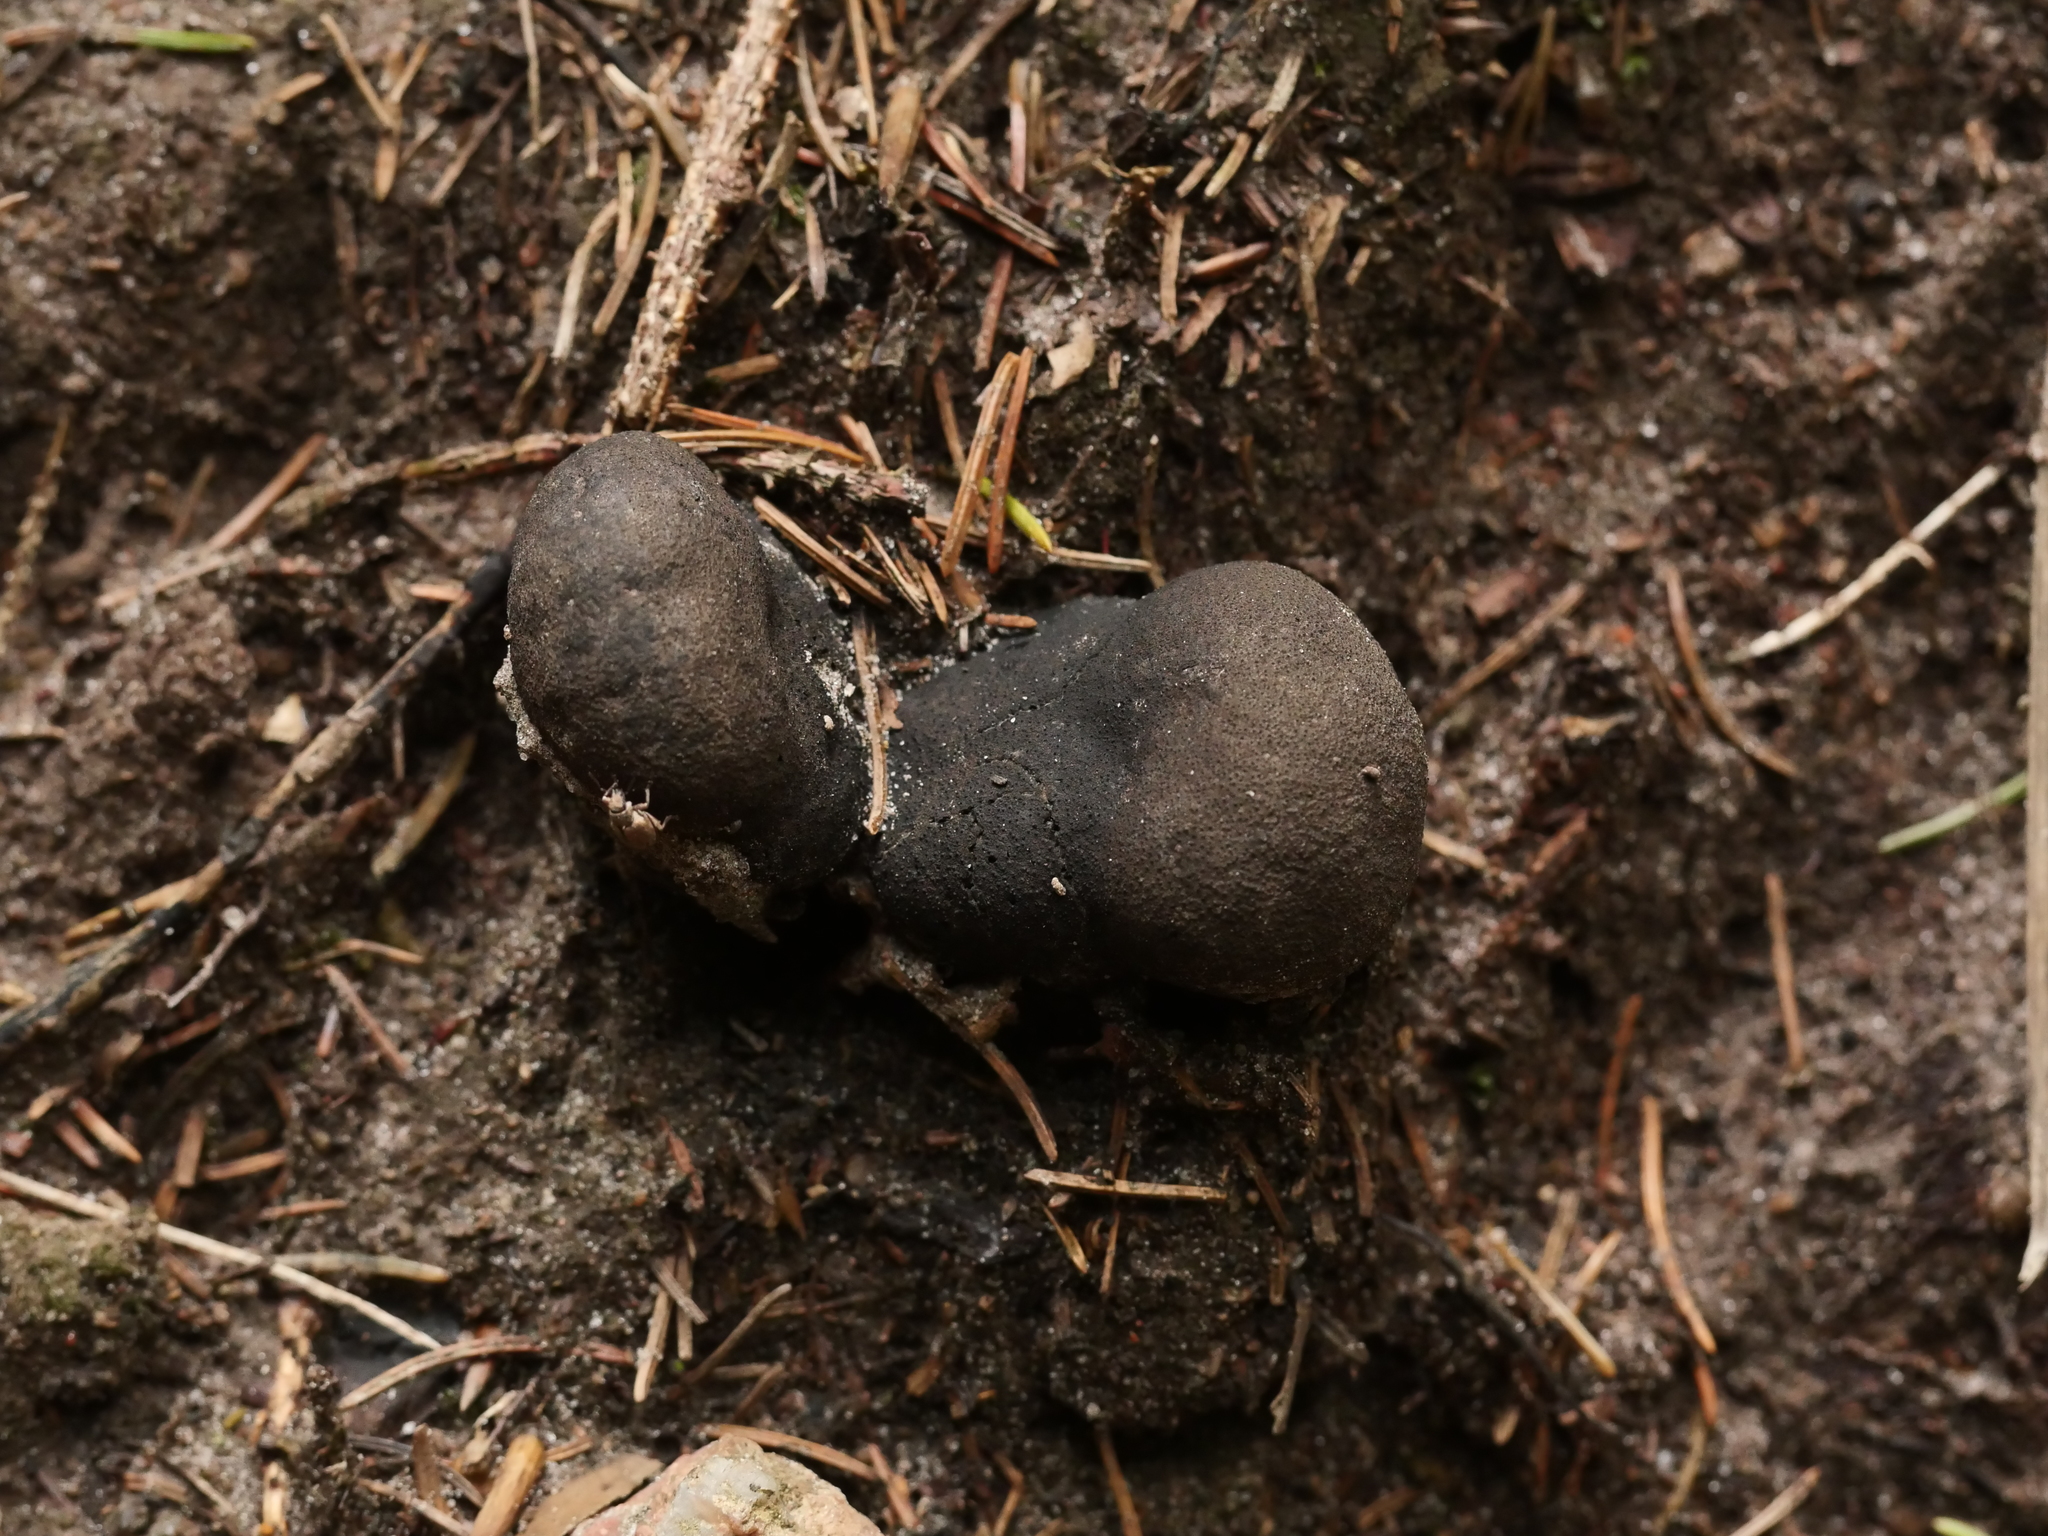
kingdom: Fungi
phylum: Ascomycota
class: Sordariomycetes
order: Xylariales
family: Xylariaceae
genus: Xylaria
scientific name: Xylaria polymorpha
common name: Dead man's fingers
